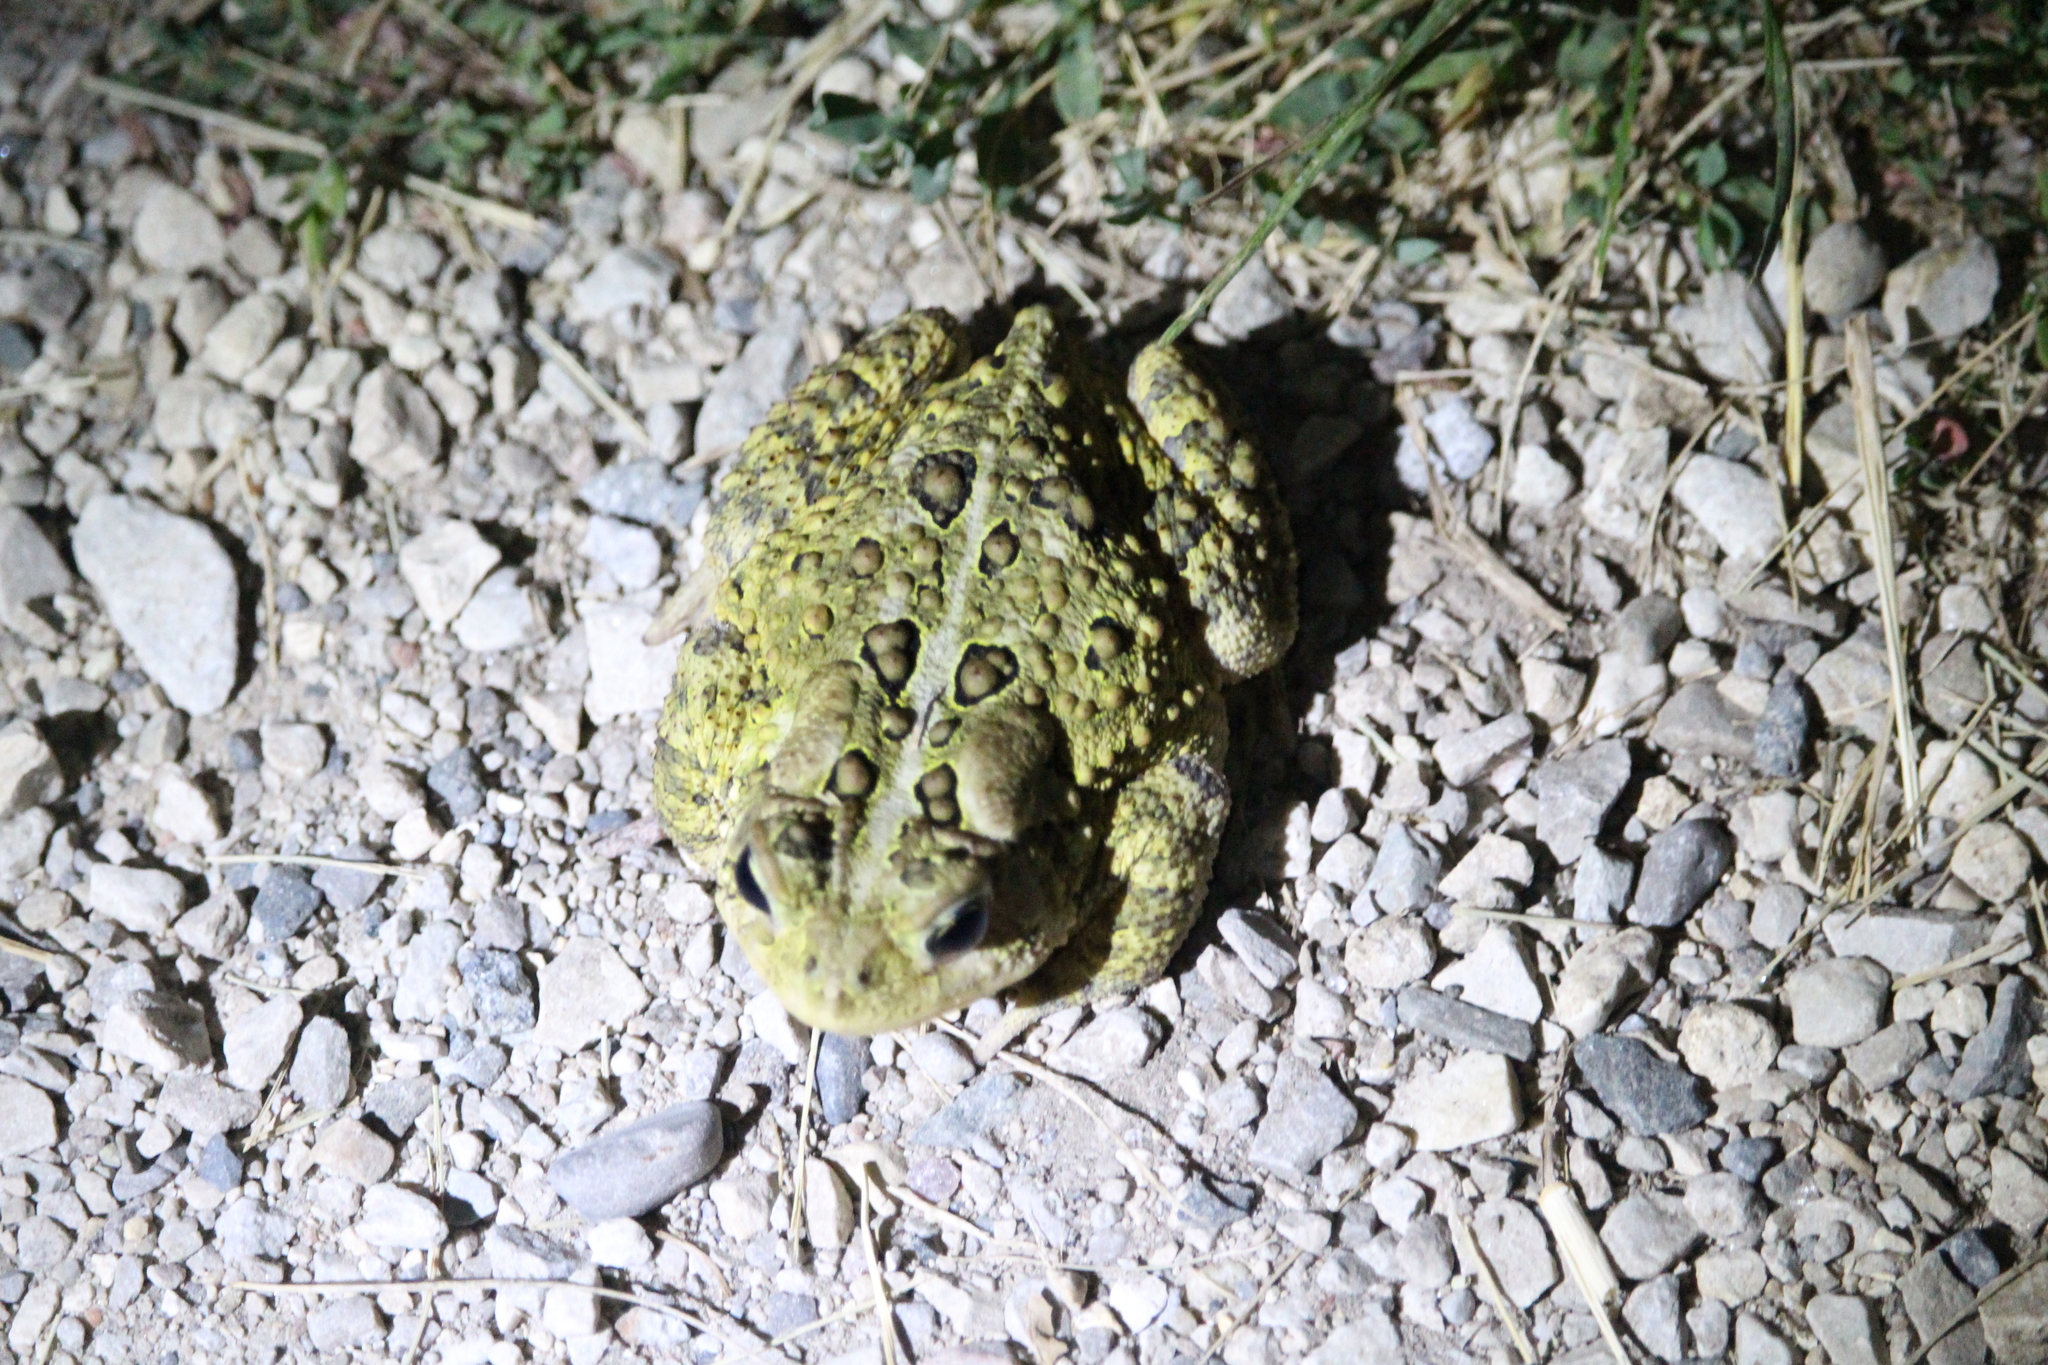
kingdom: Animalia
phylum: Chordata
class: Amphibia
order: Anura
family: Bufonidae
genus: Anaxyrus
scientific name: Anaxyrus americanus
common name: American toad
